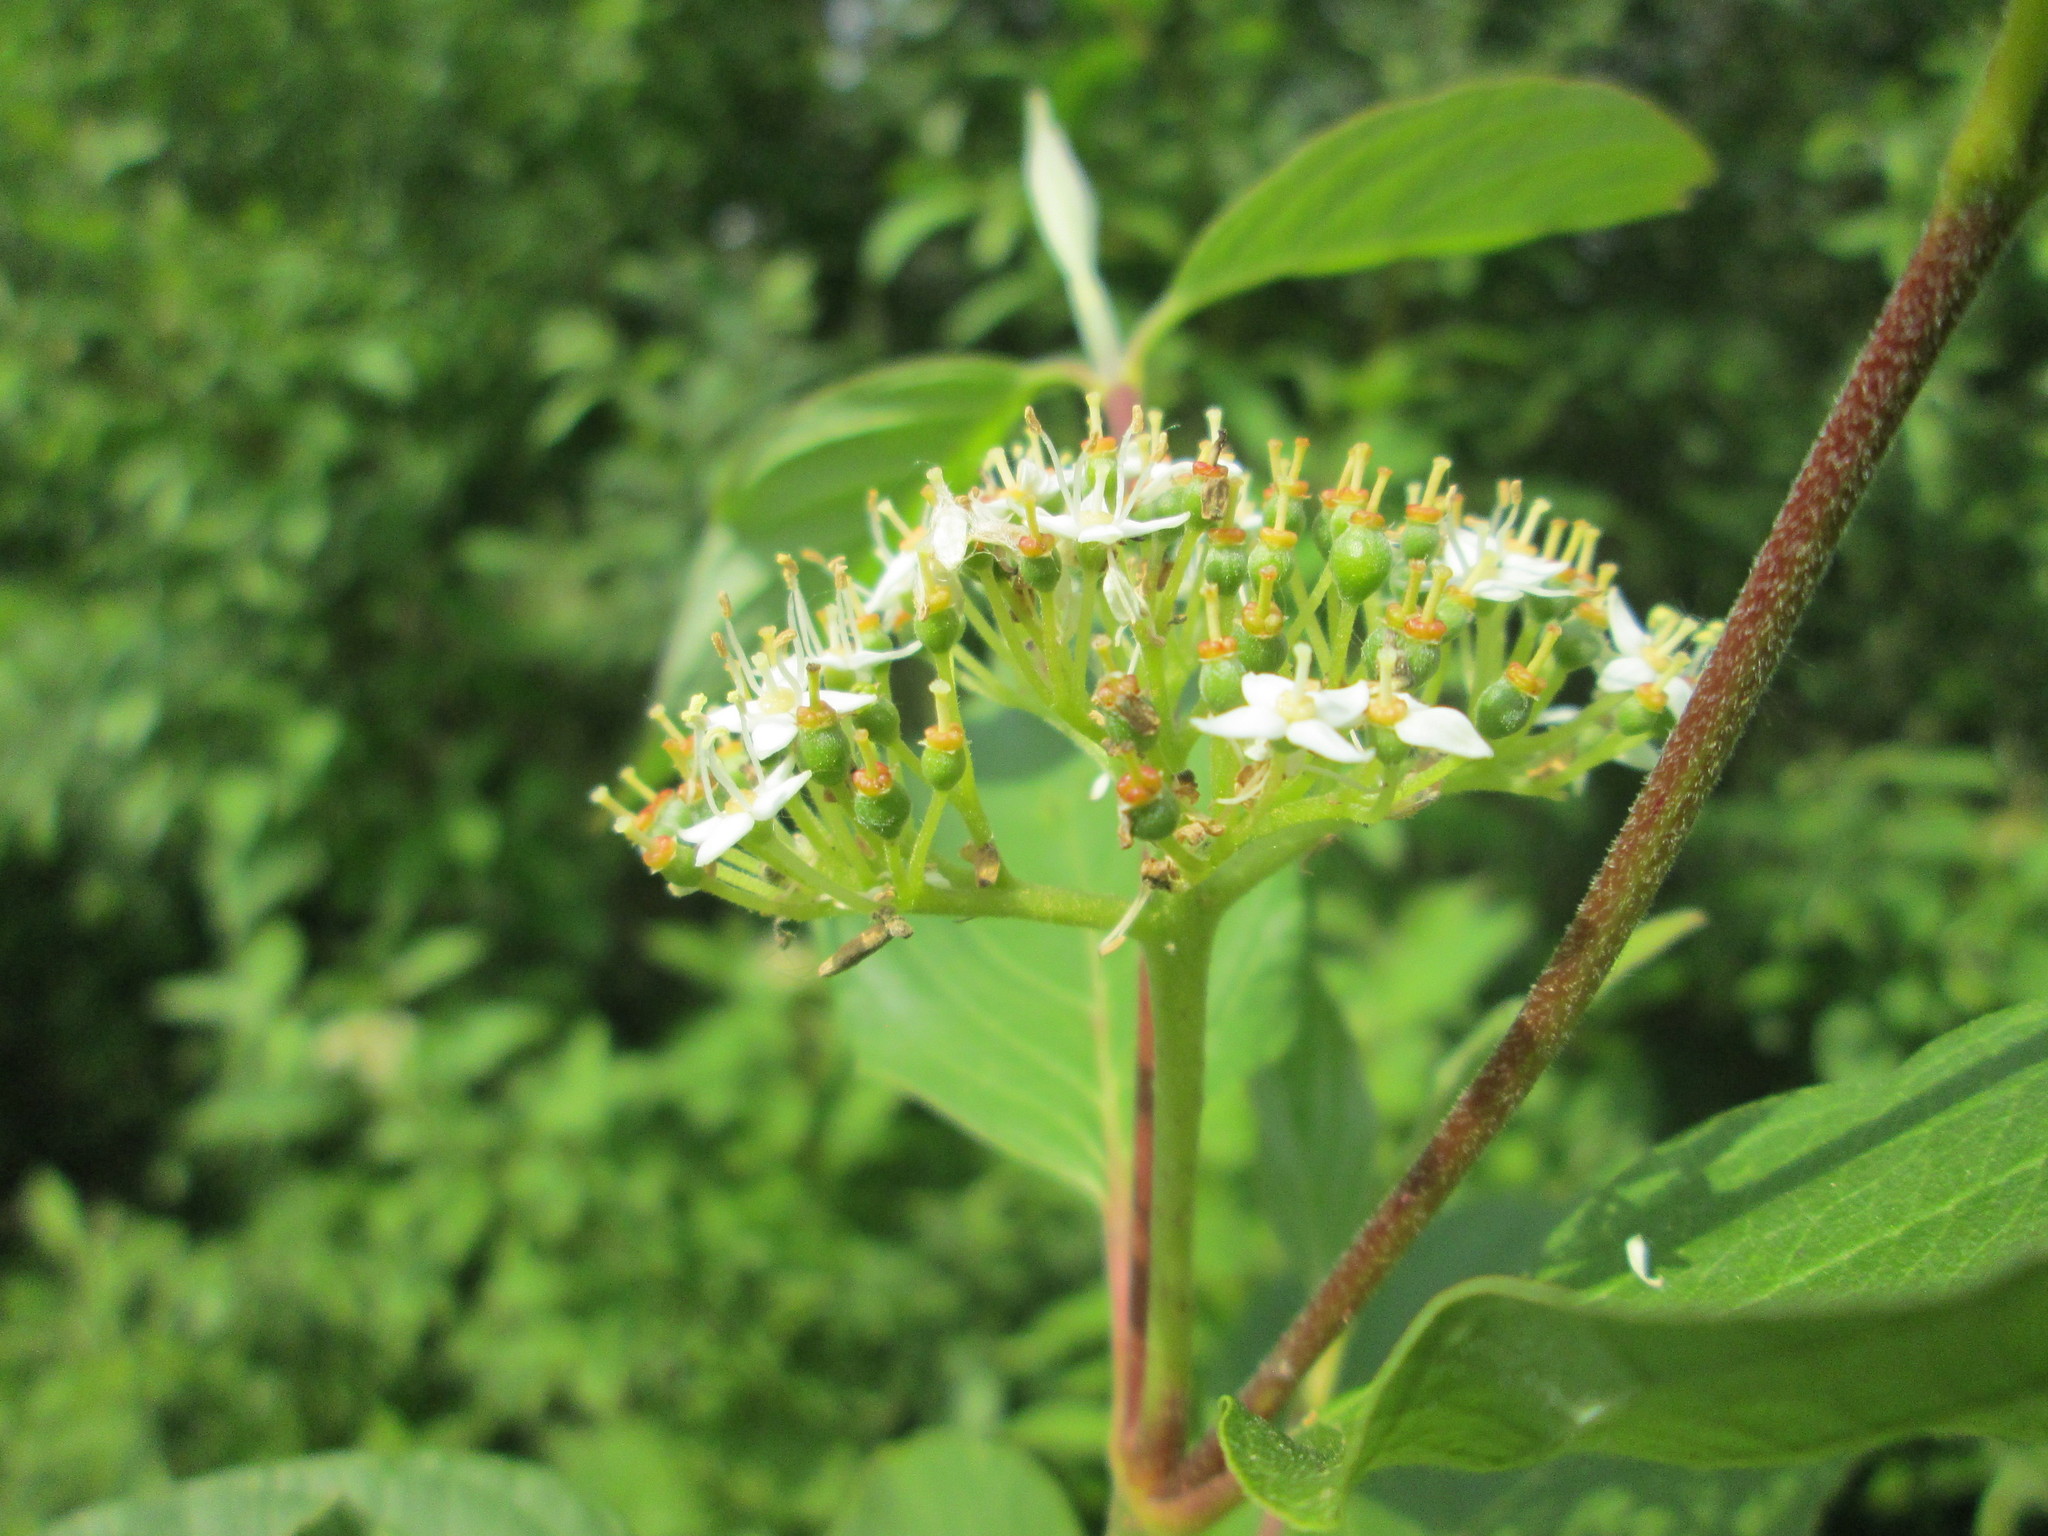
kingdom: Plantae
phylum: Tracheophyta
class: Magnoliopsida
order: Cornales
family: Cornaceae
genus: Cornus
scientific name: Cornus sericea
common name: Red-osier dogwood
